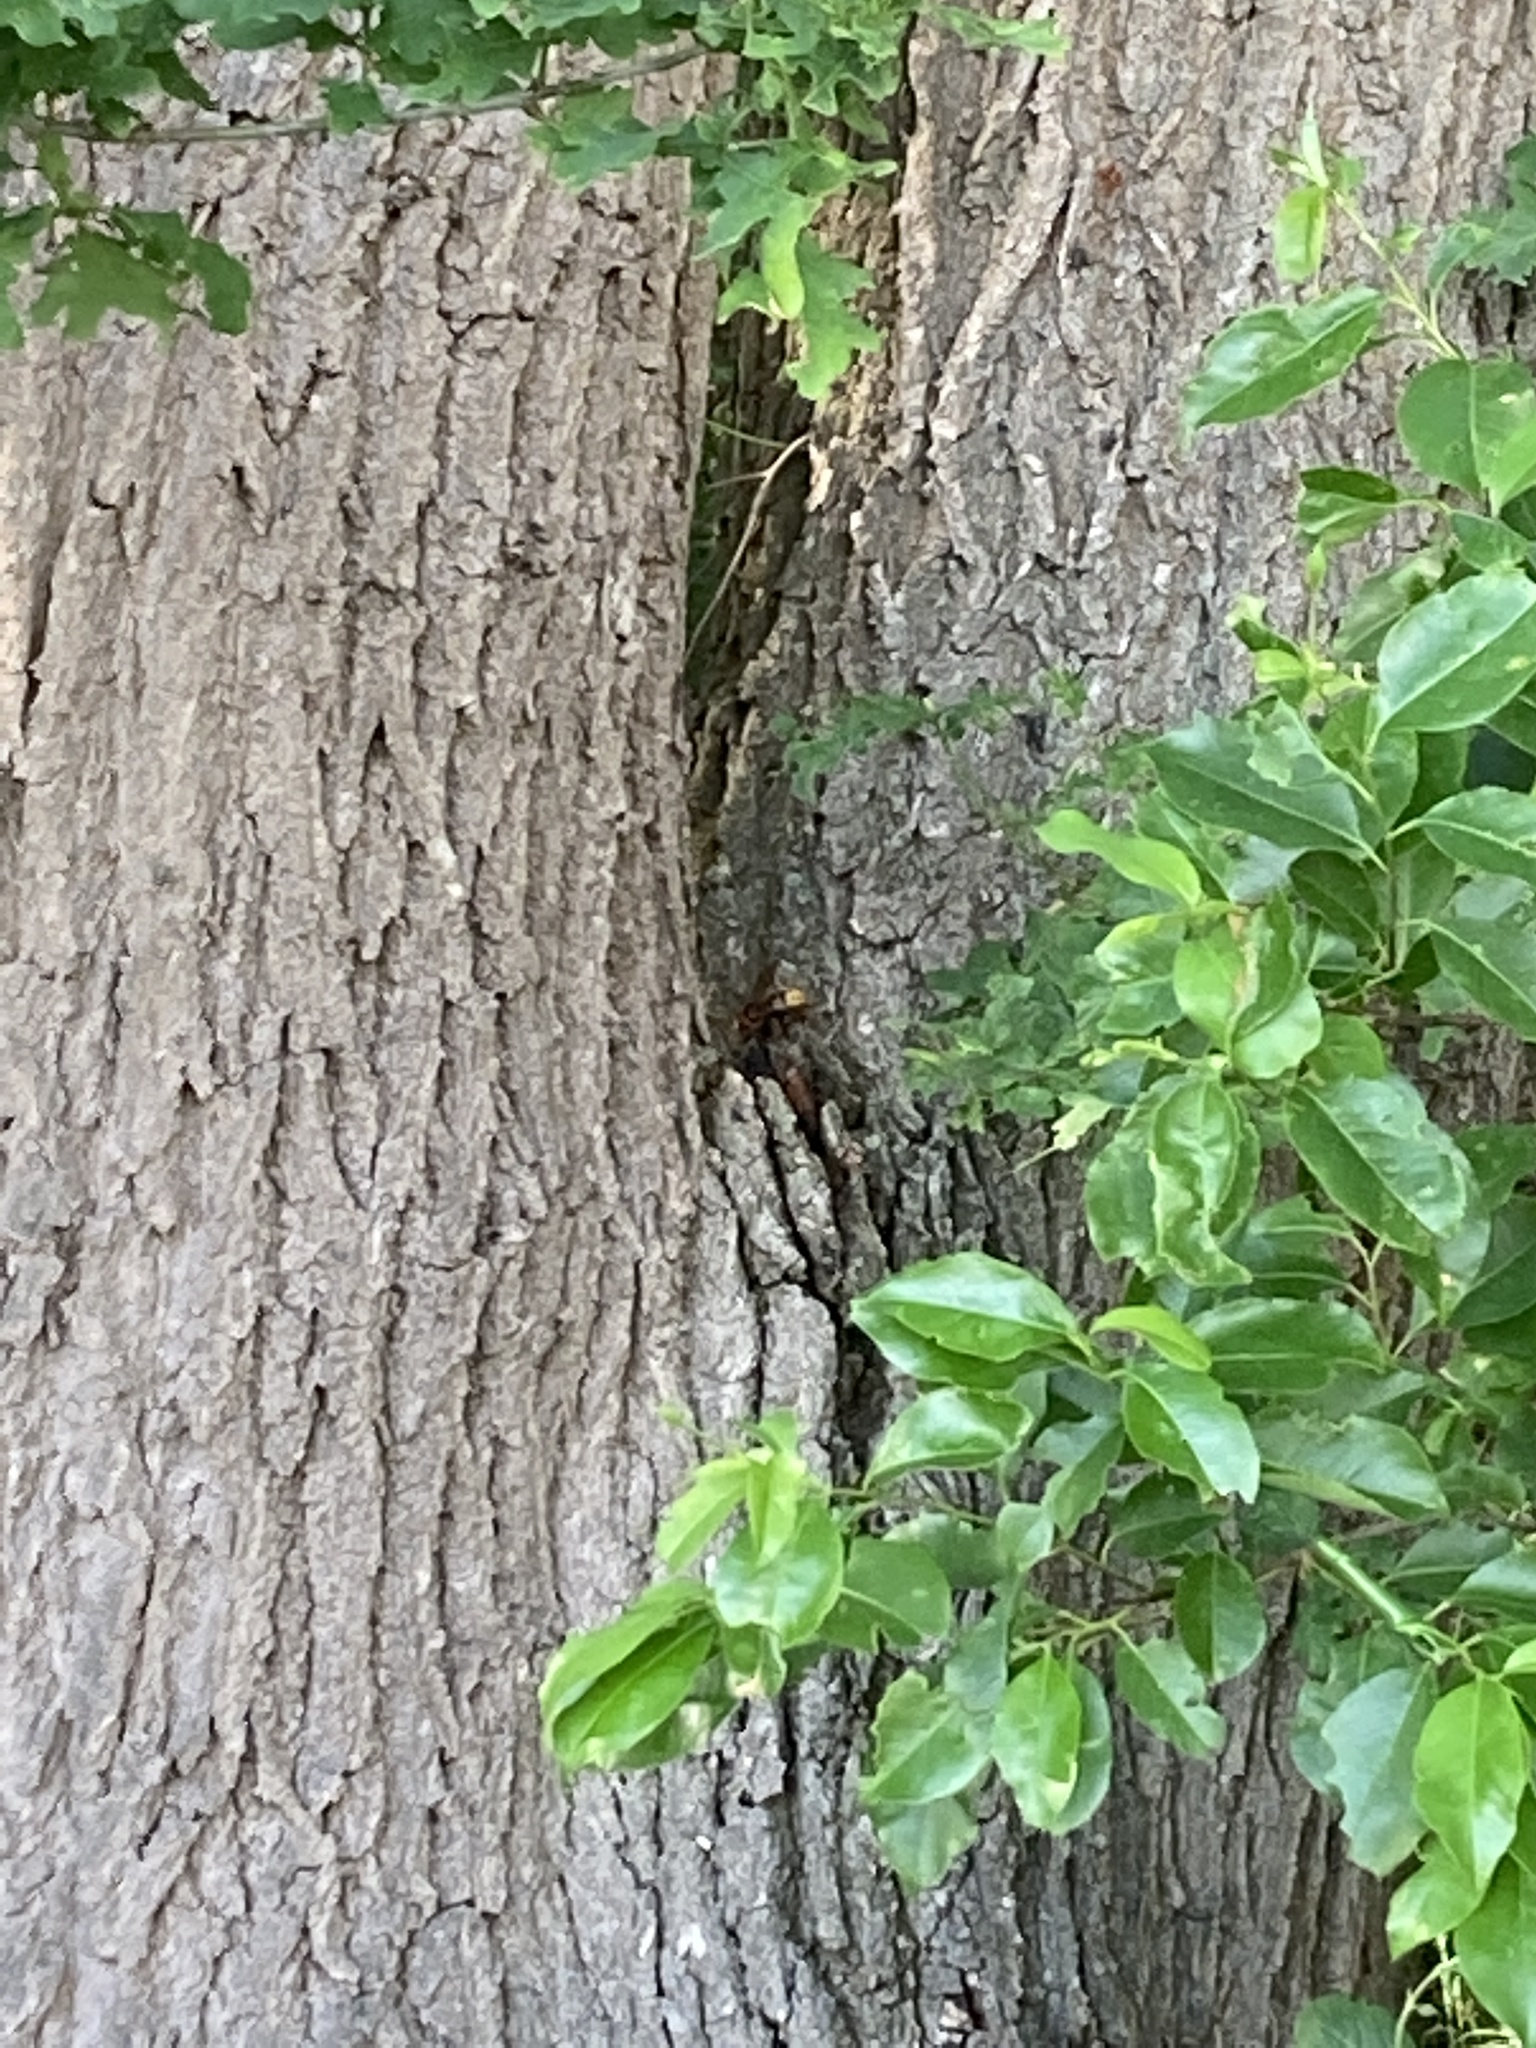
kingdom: Animalia
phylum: Arthropoda
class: Insecta
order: Hymenoptera
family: Vespidae
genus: Vespa
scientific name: Vespa crabro
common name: Hornet
